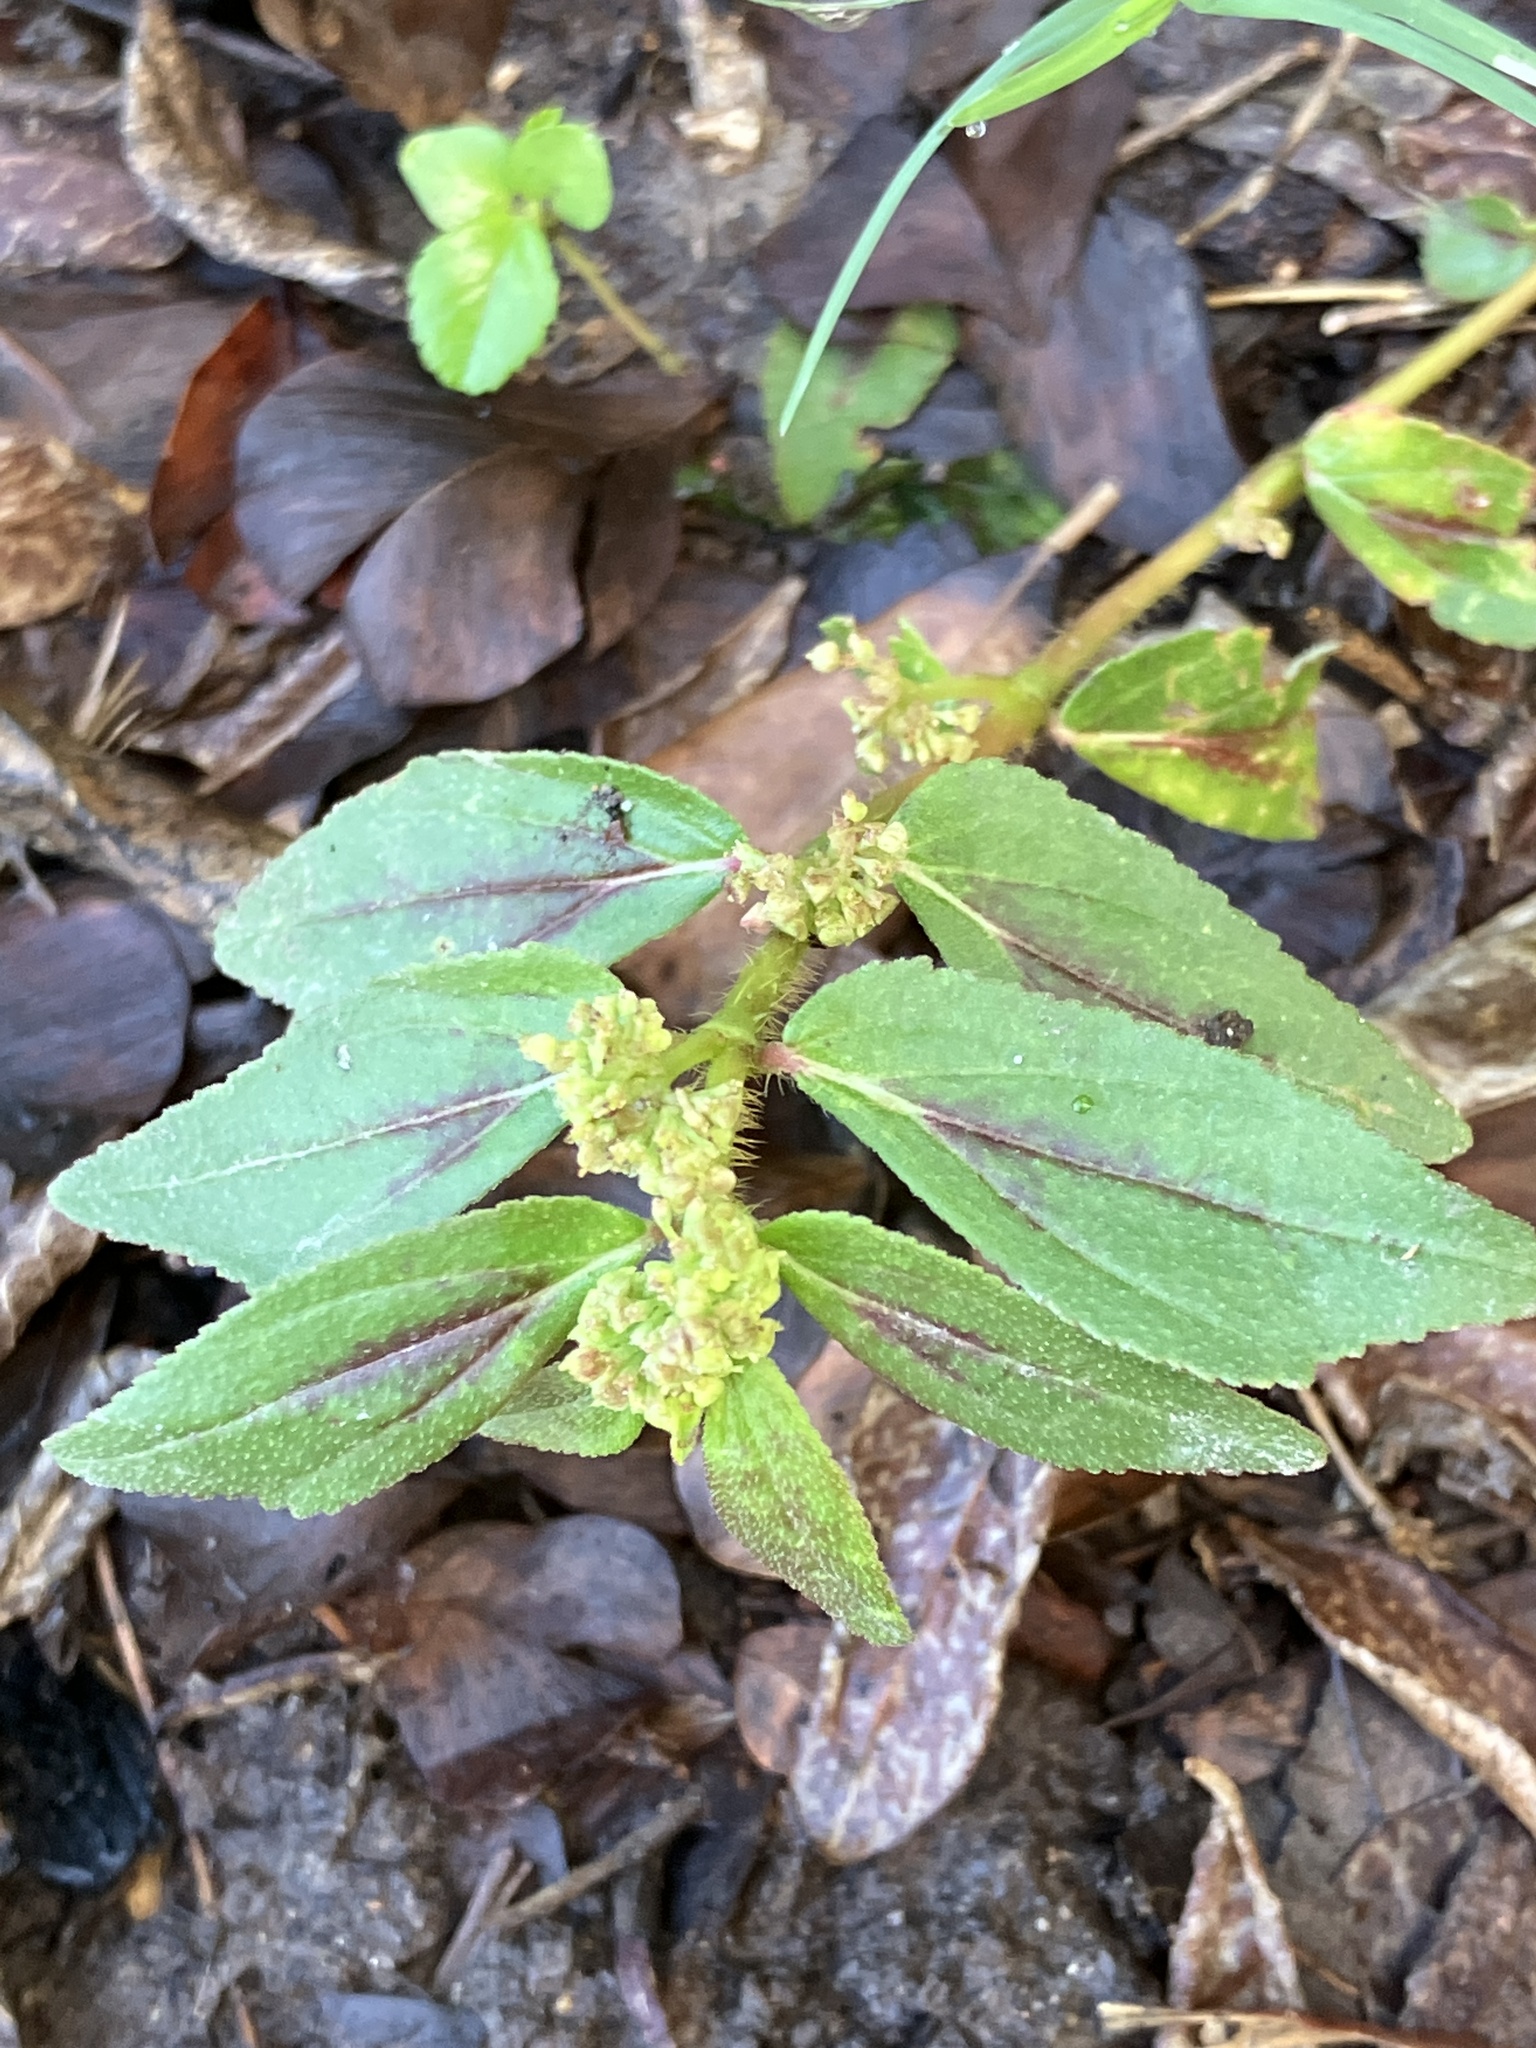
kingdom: Plantae
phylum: Tracheophyta
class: Magnoliopsida
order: Malpighiales
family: Euphorbiaceae
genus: Euphorbia
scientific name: Euphorbia hirta
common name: Pillpod sandmat
